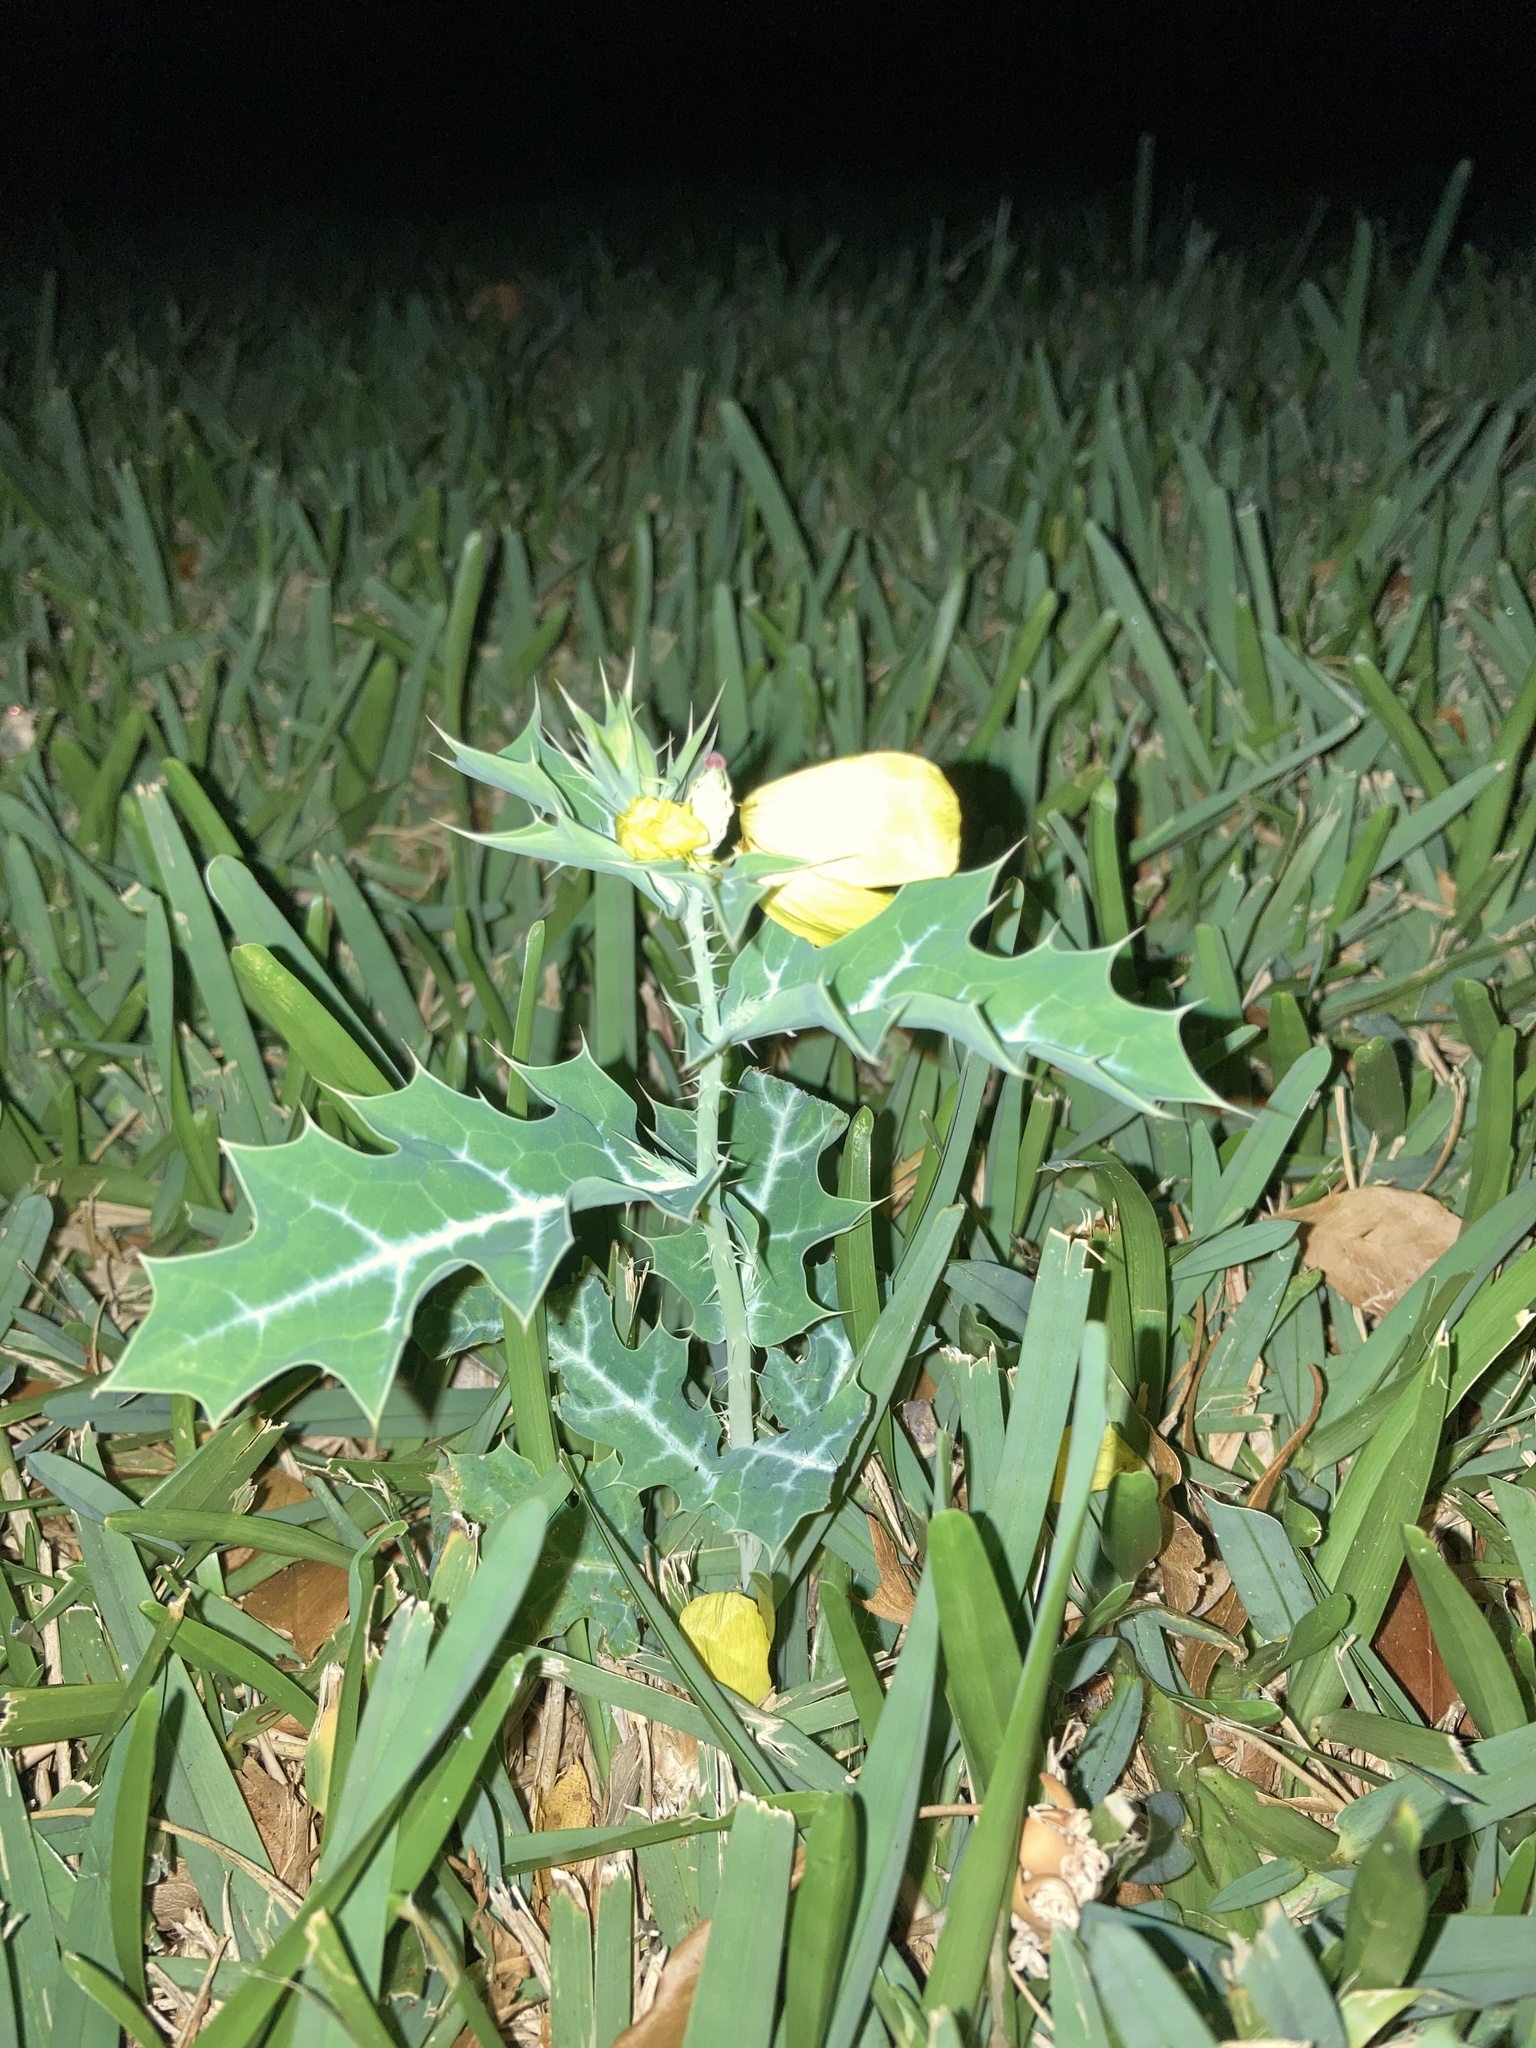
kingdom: Plantae
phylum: Tracheophyta
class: Magnoliopsida
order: Ranunculales
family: Papaveraceae
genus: Argemone
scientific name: Argemone mexicana
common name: Mexican poppy
